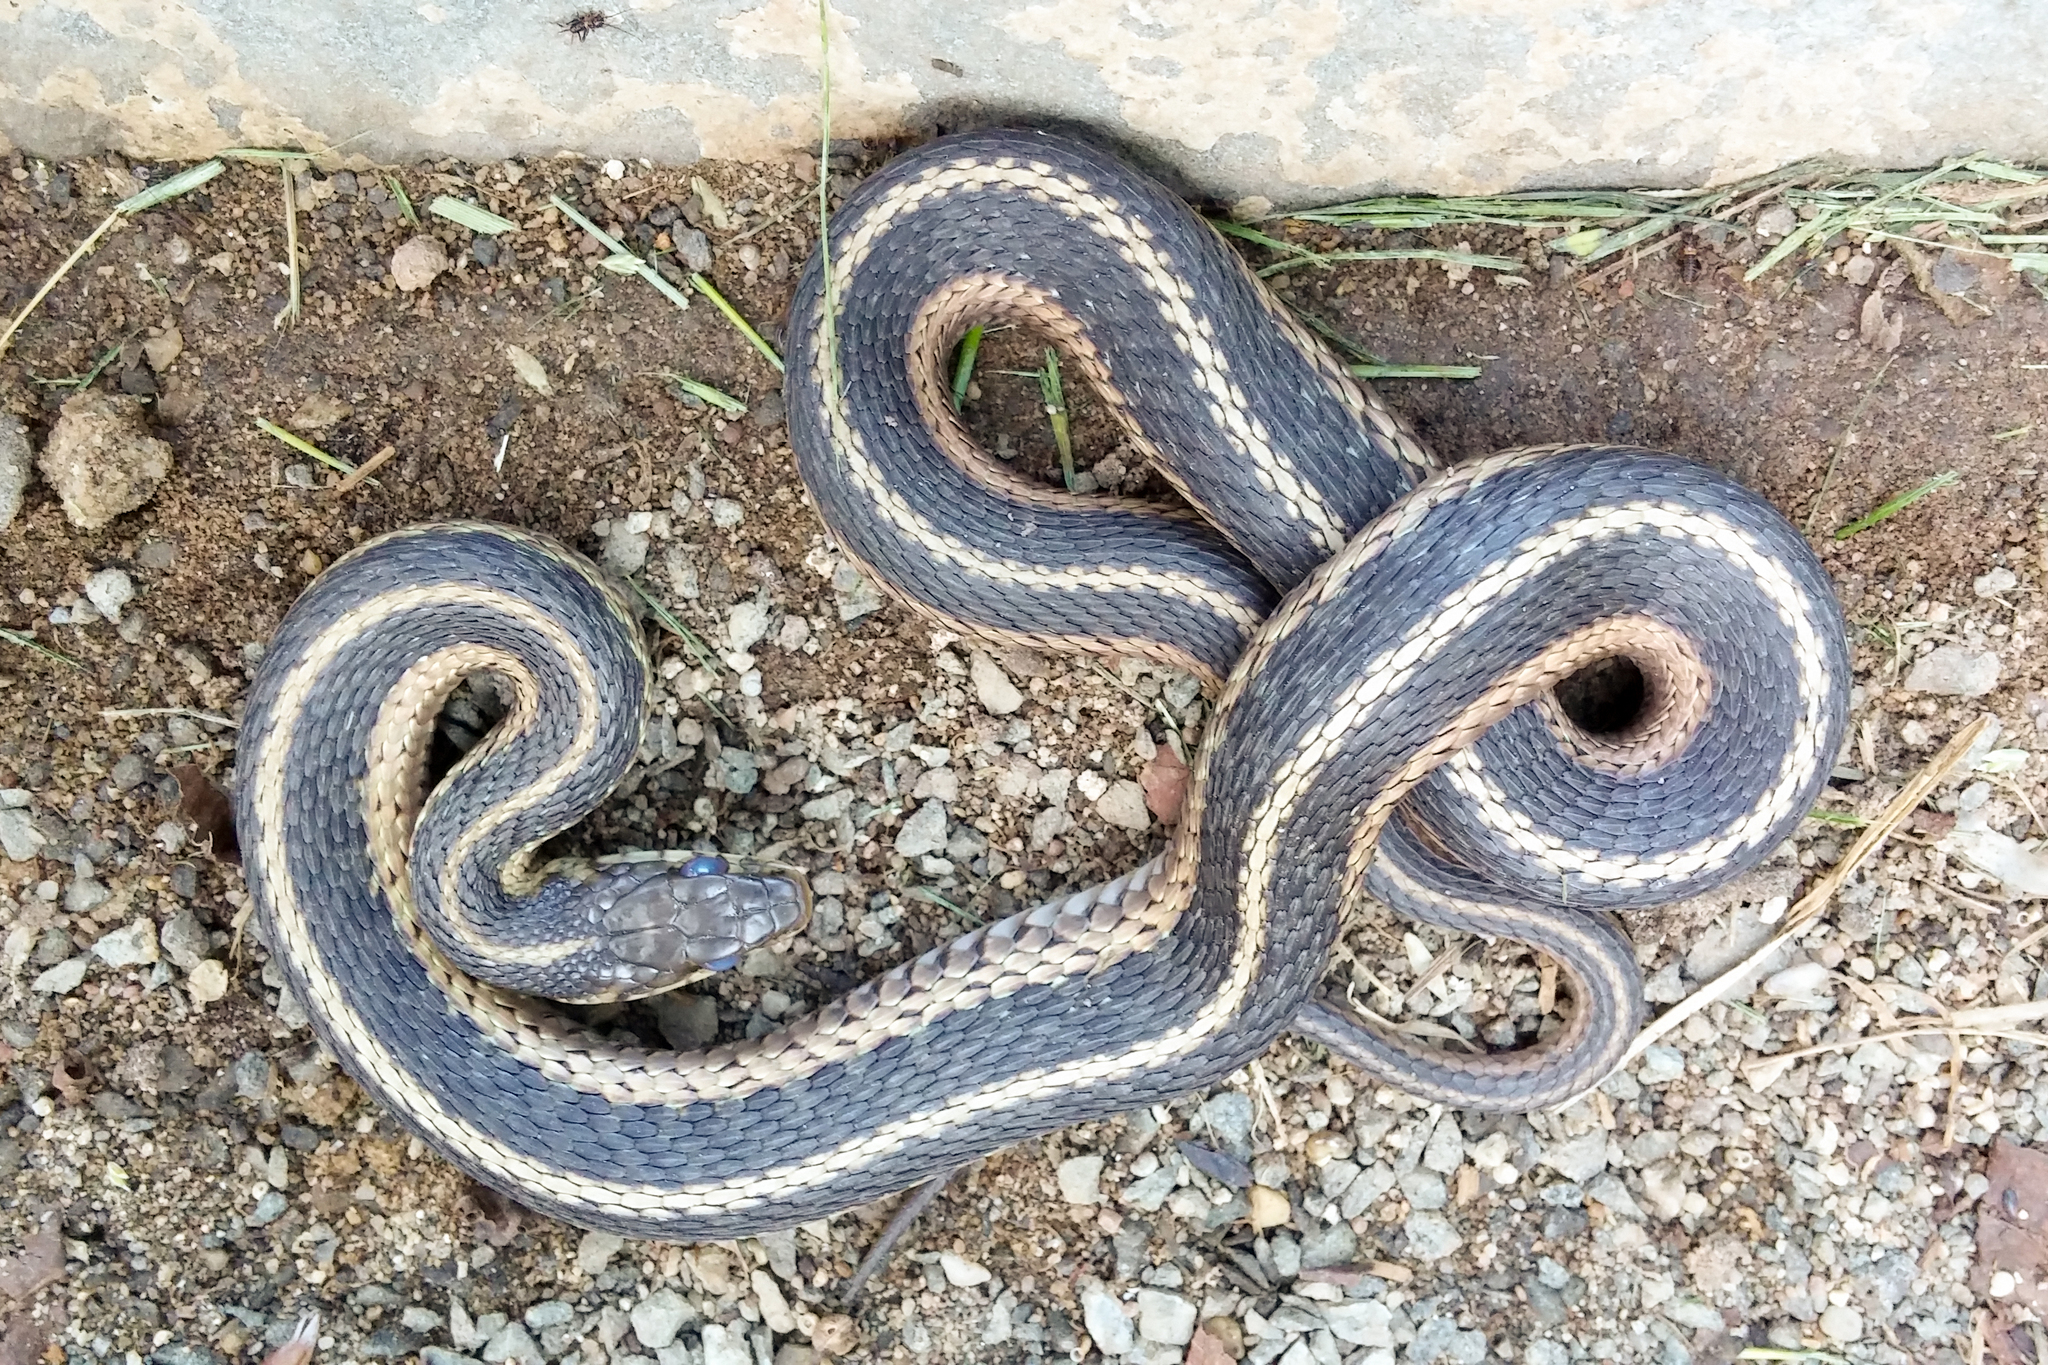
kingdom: Animalia
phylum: Chordata
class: Squamata
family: Colubridae
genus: Thamnophis
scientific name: Thamnophis sirtalis
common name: Common garter snake
